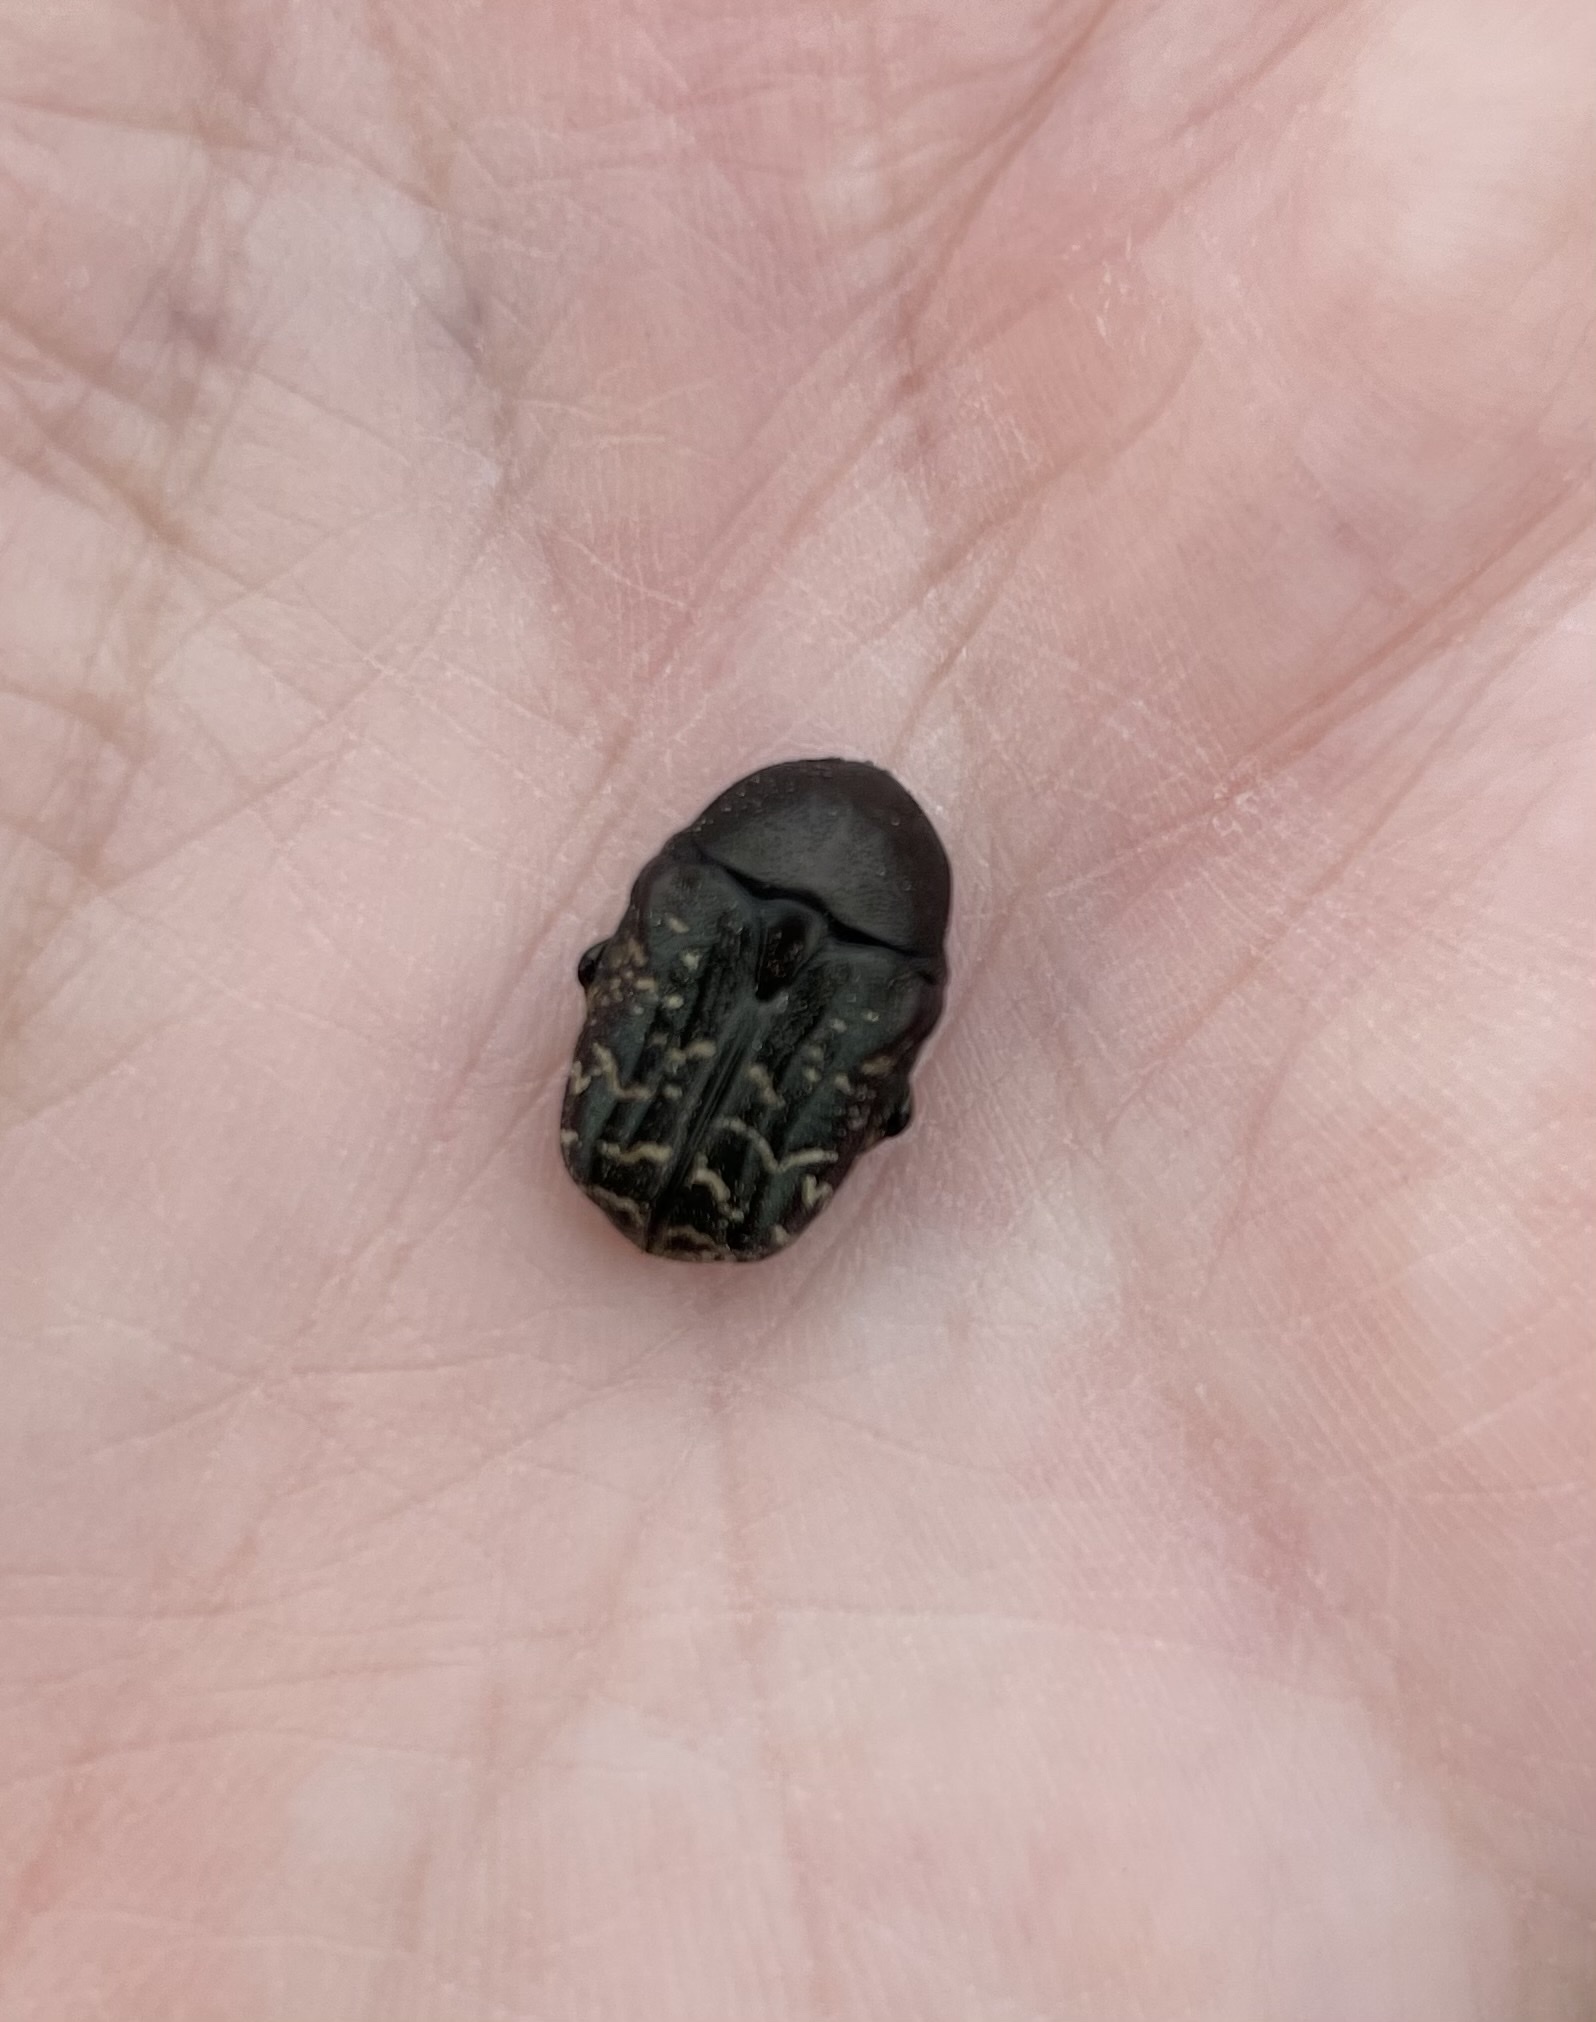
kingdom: Animalia
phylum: Arthropoda
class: Insecta
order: Coleoptera
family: Scarabaeidae
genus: Euphoria
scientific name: Euphoria sepulcralis
